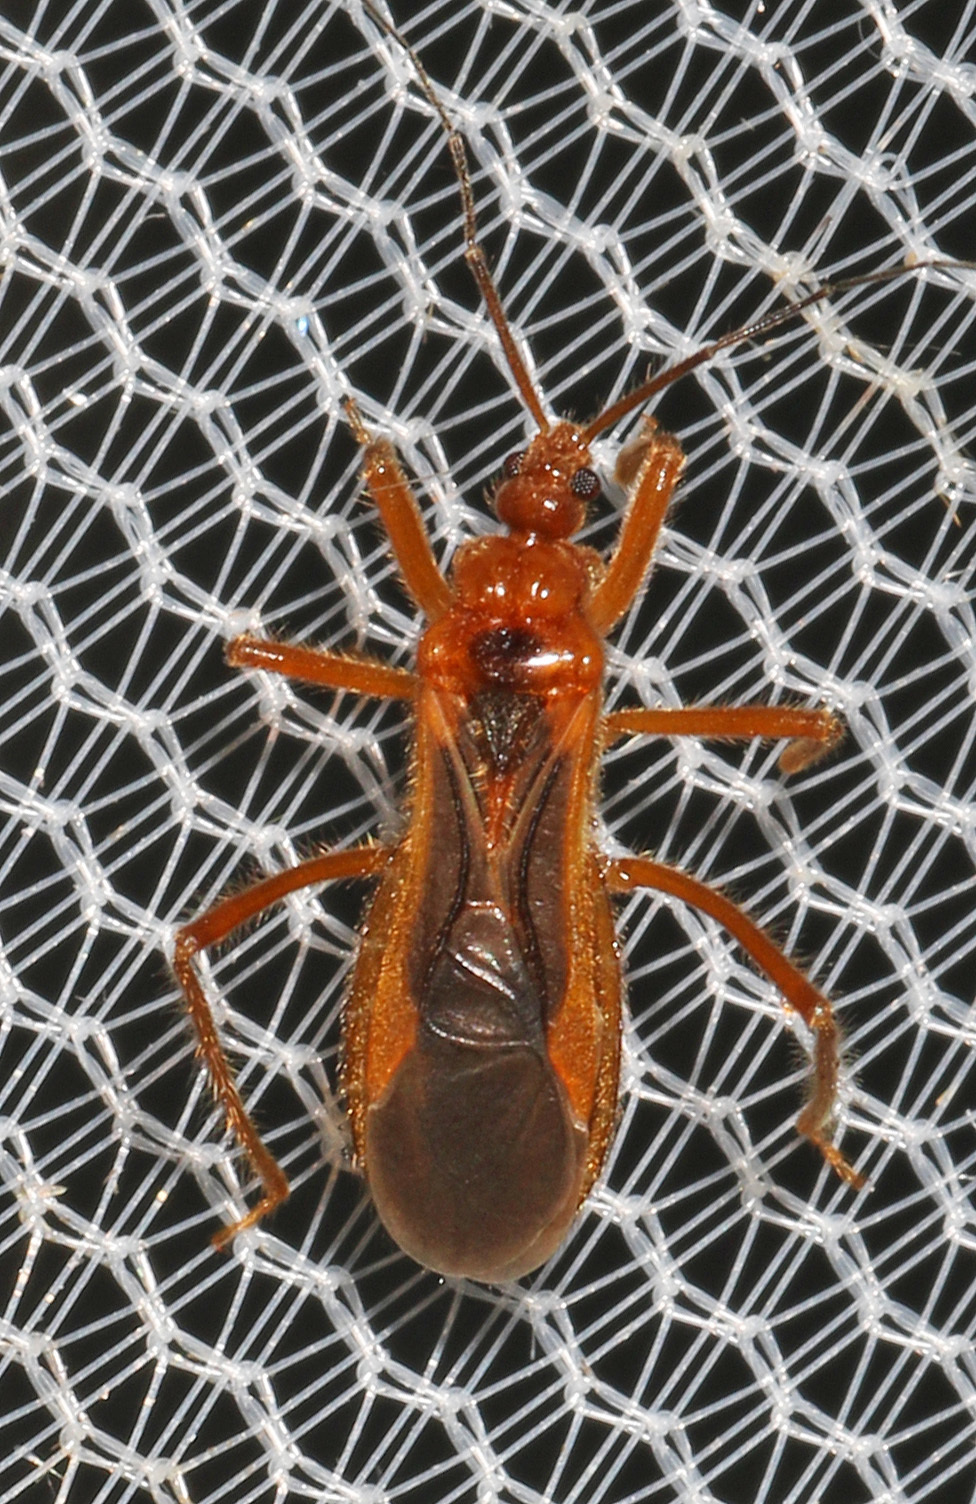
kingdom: Animalia
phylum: Arthropoda
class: Insecta
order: Hemiptera
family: Reduviidae
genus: Oncerotrachelus
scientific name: Oncerotrachelus acuminatus
